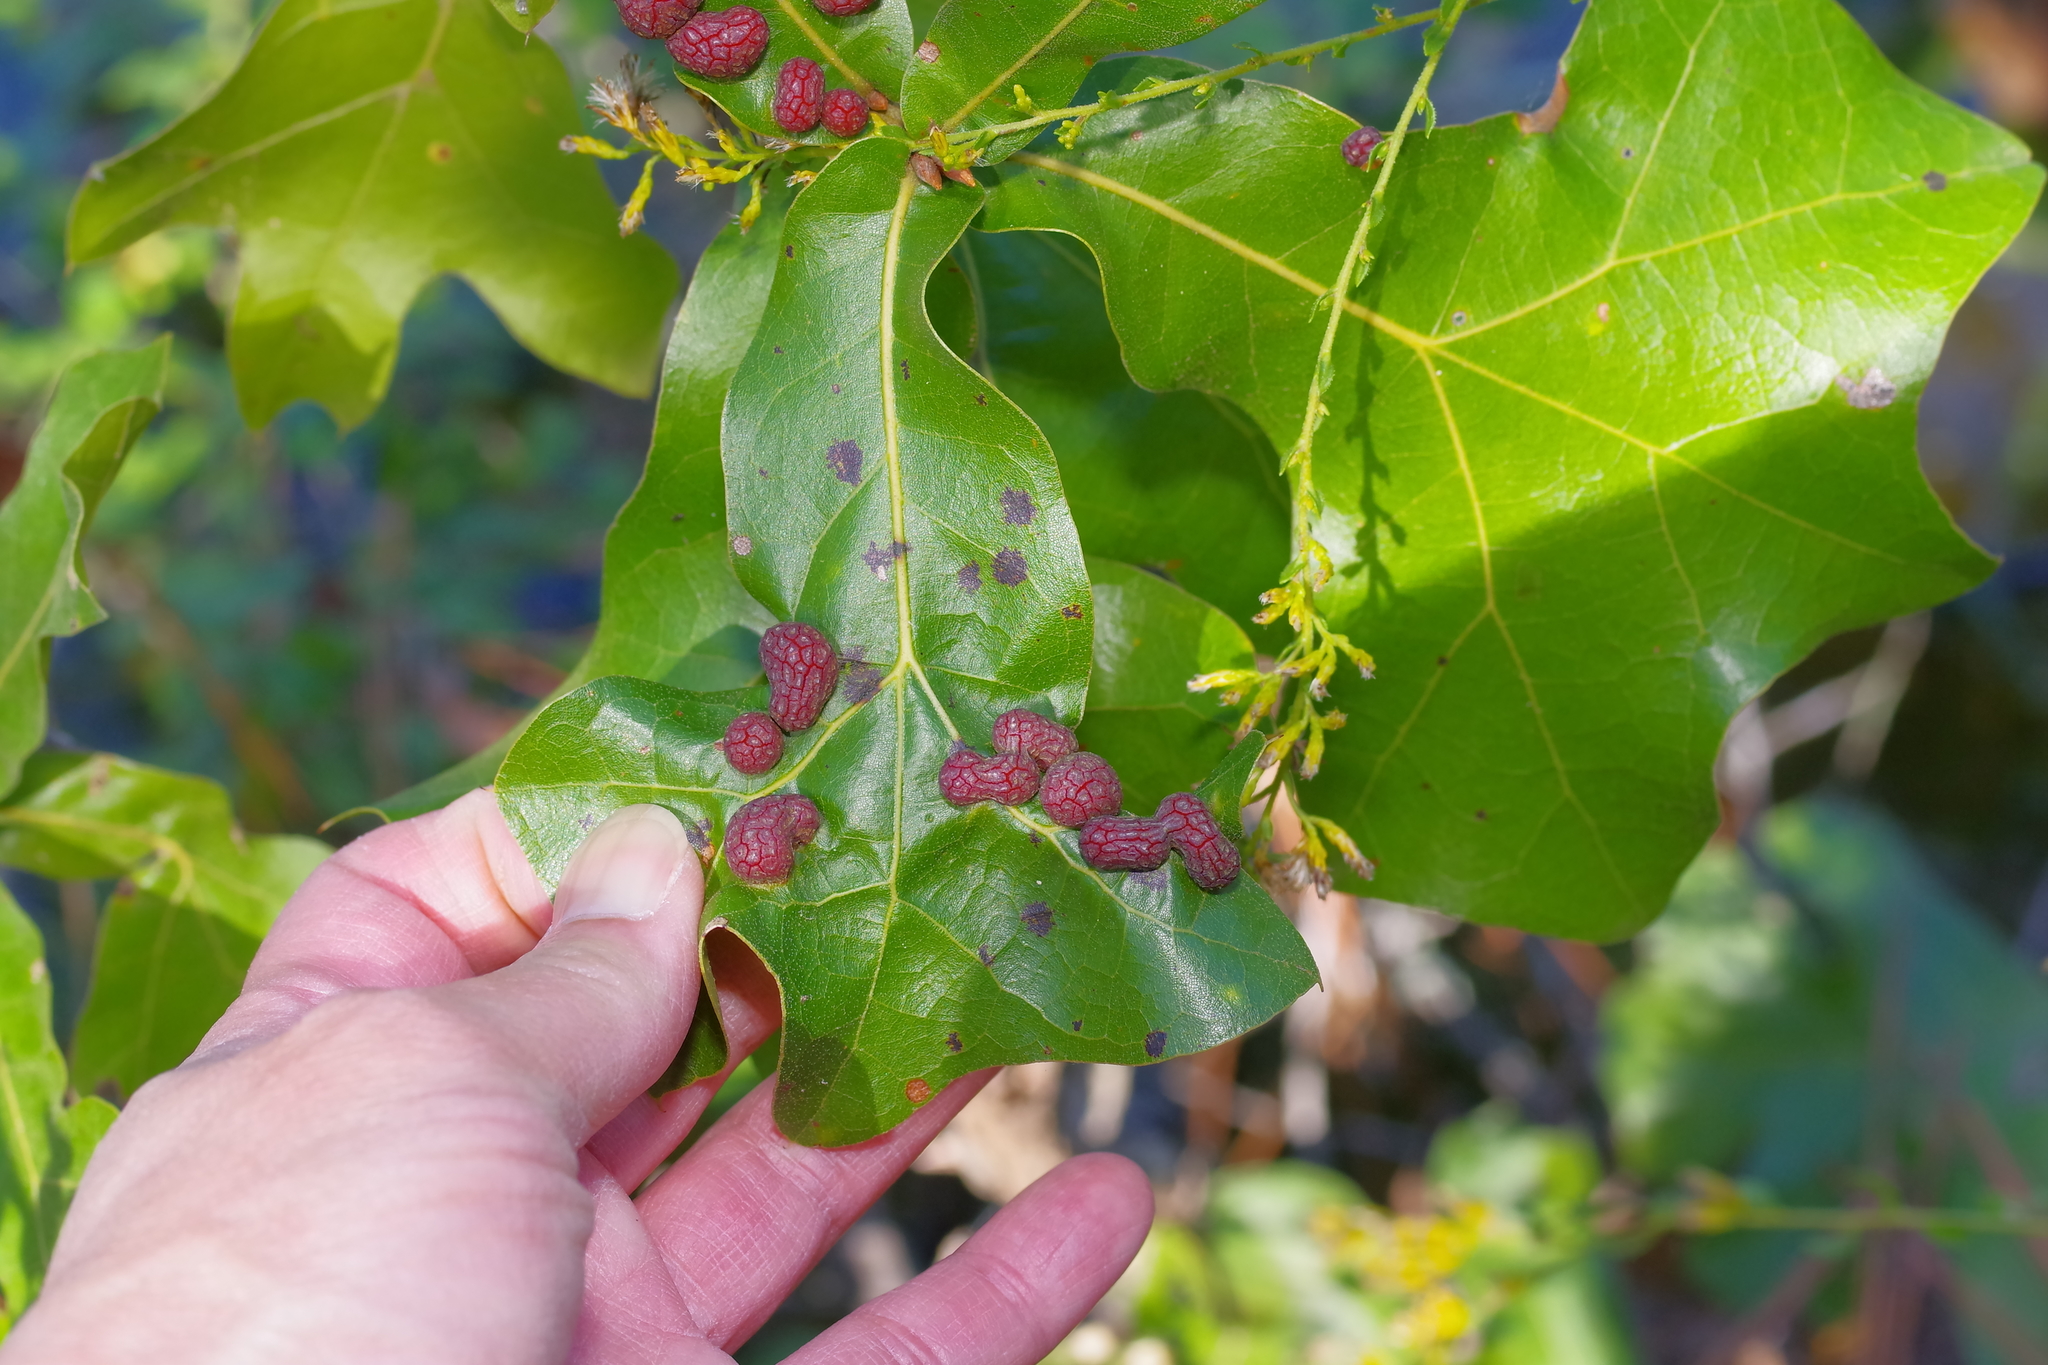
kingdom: Animalia
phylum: Arthropoda
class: Insecta
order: Diptera
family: Cecidomyiidae
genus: Polystepha
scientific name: Polystepha pilulae
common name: Oak leaf gall midge
